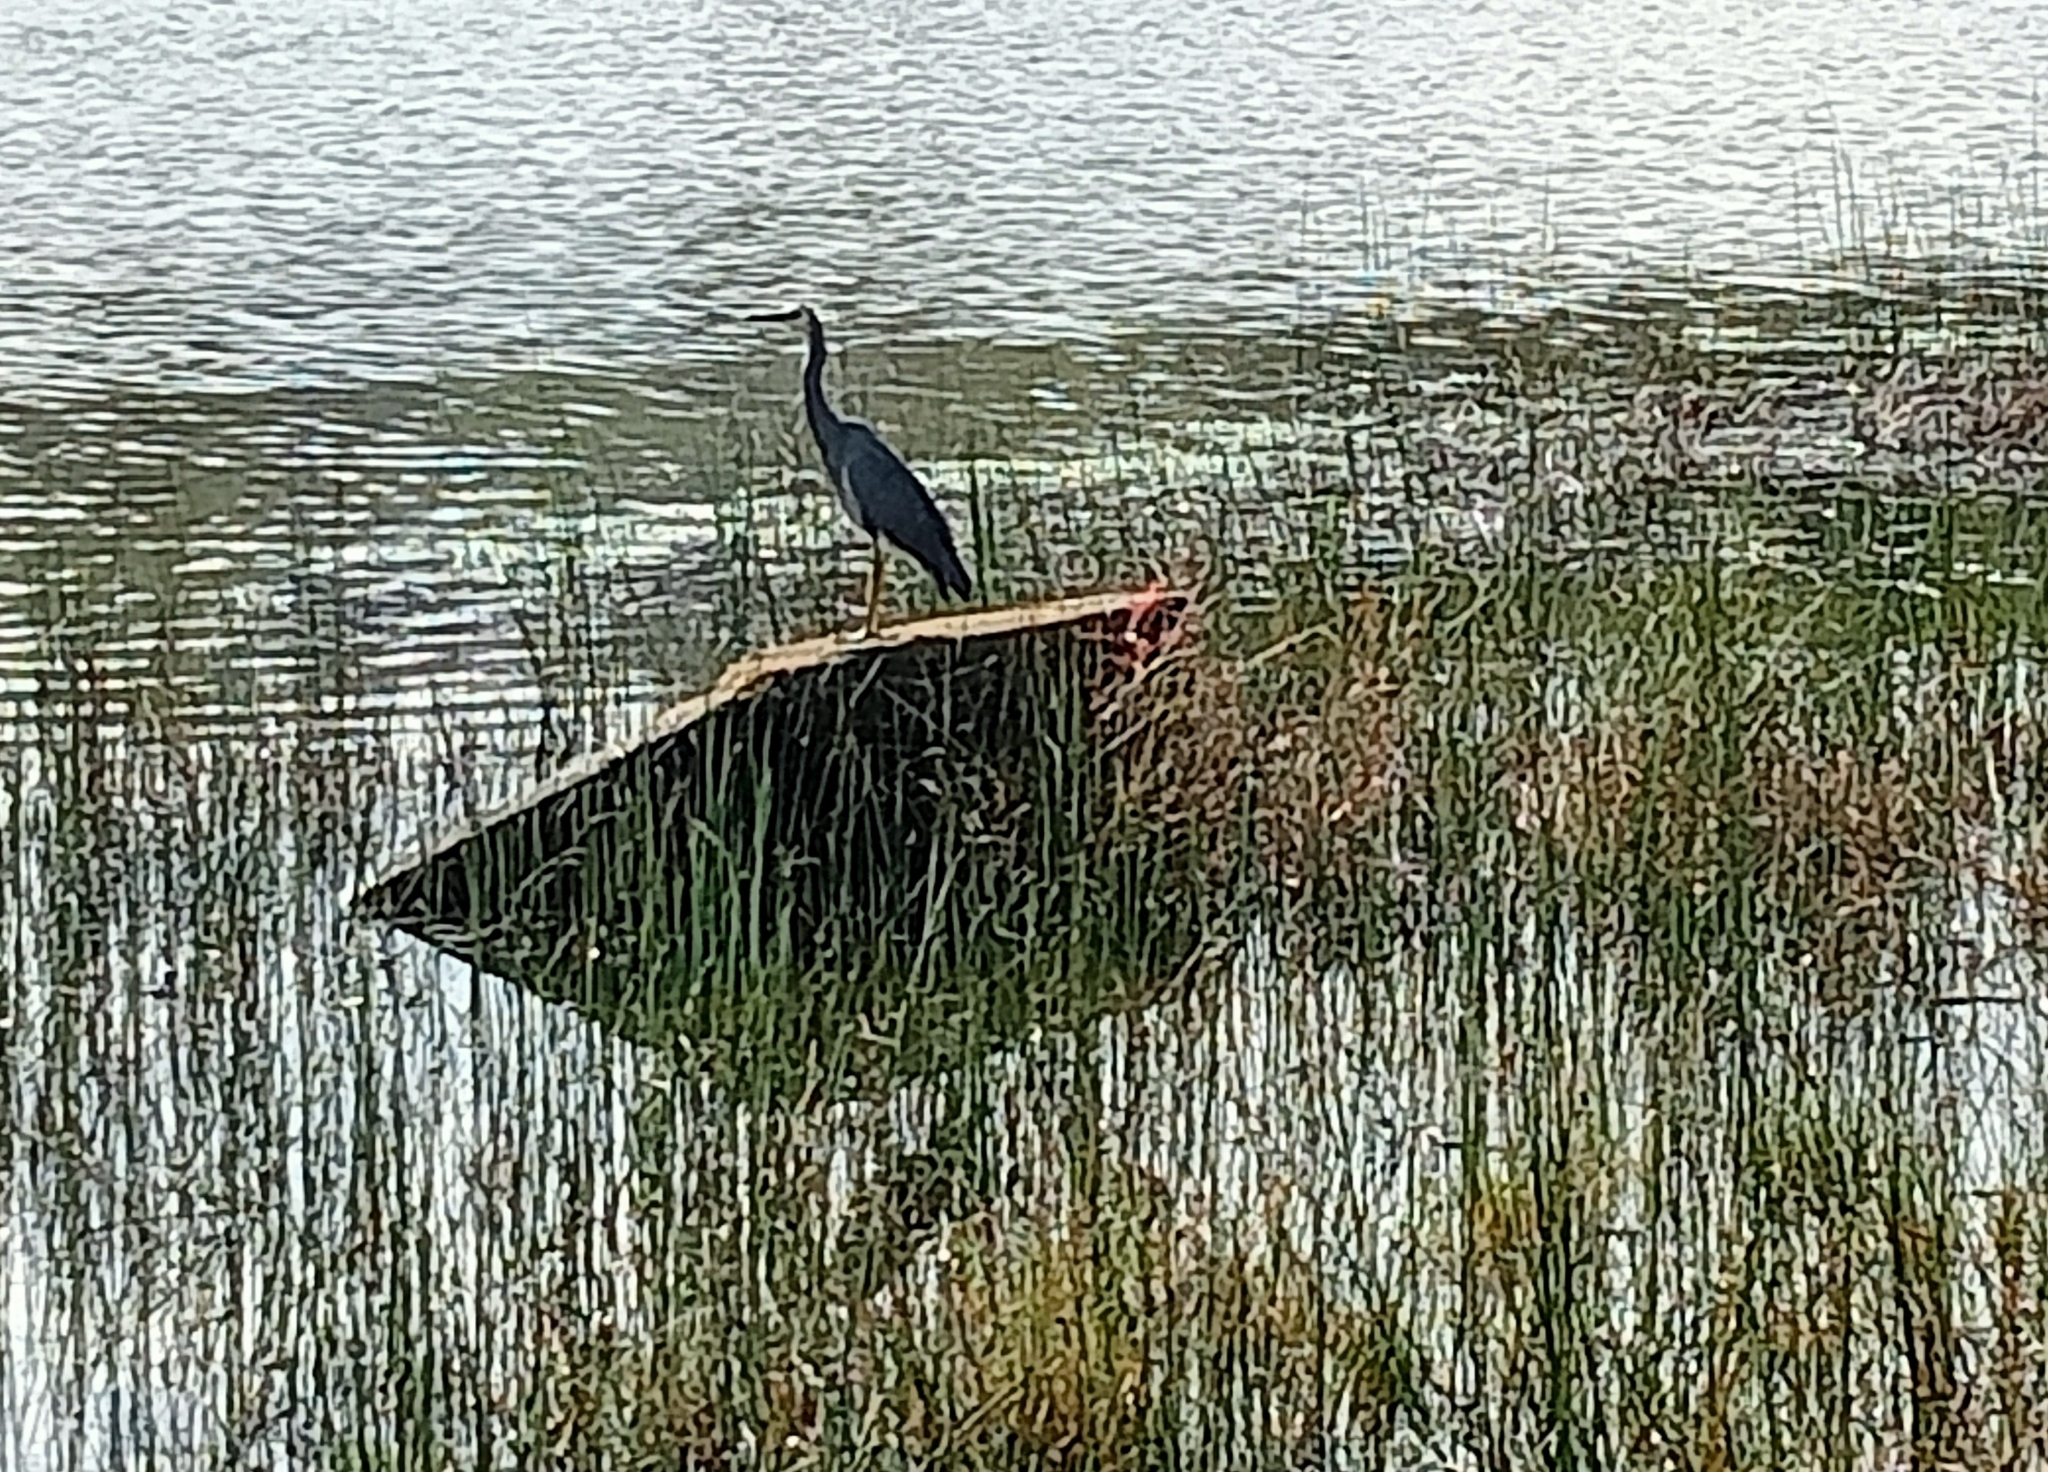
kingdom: Animalia
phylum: Chordata
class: Aves
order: Pelecaniformes
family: Ardeidae
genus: Egretta
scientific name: Egretta novaehollandiae
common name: White-faced heron
